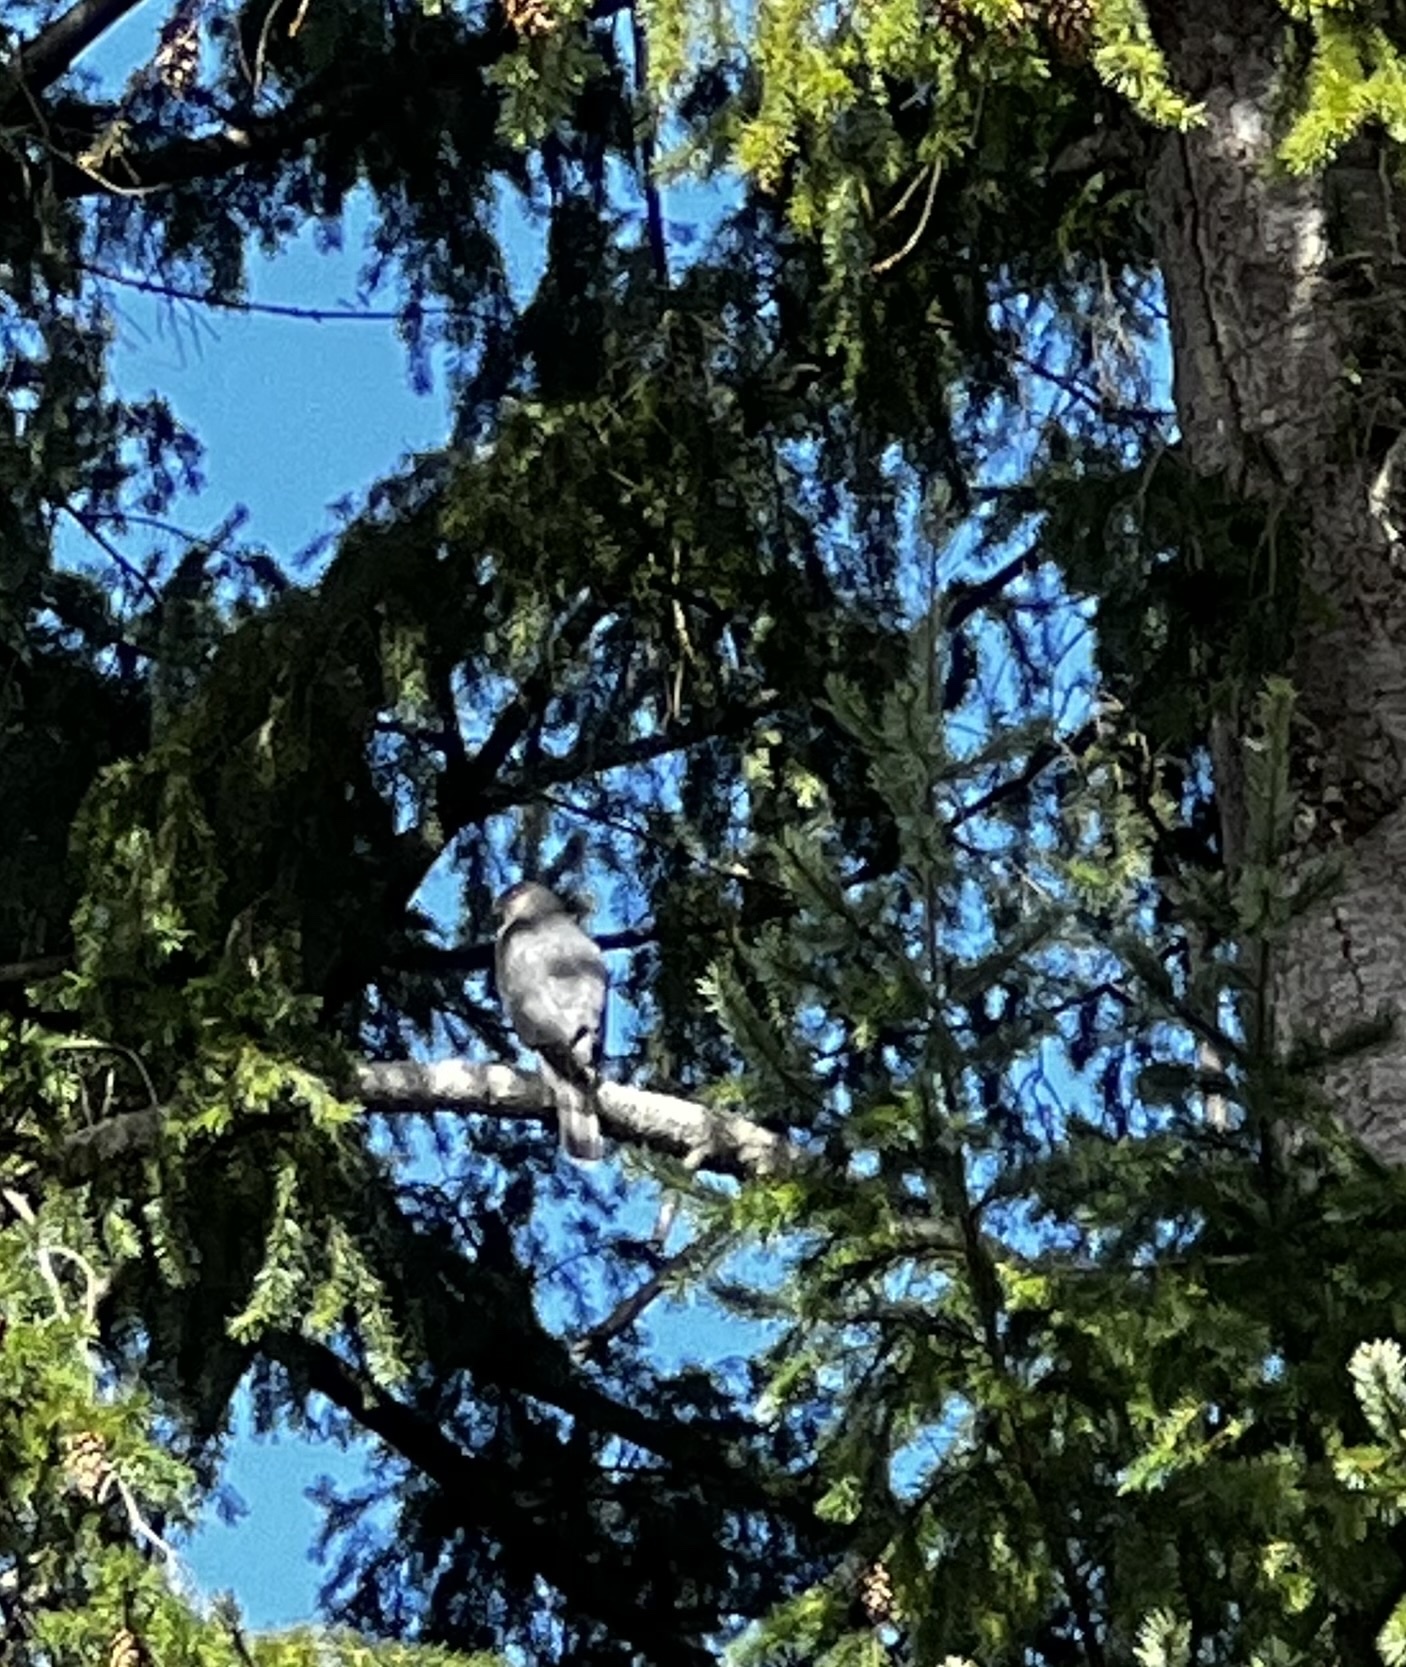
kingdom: Animalia
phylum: Chordata
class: Aves
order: Accipitriformes
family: Accipitridae
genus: Accipiter
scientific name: Accipiter cooperii
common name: Cooper's hawk
